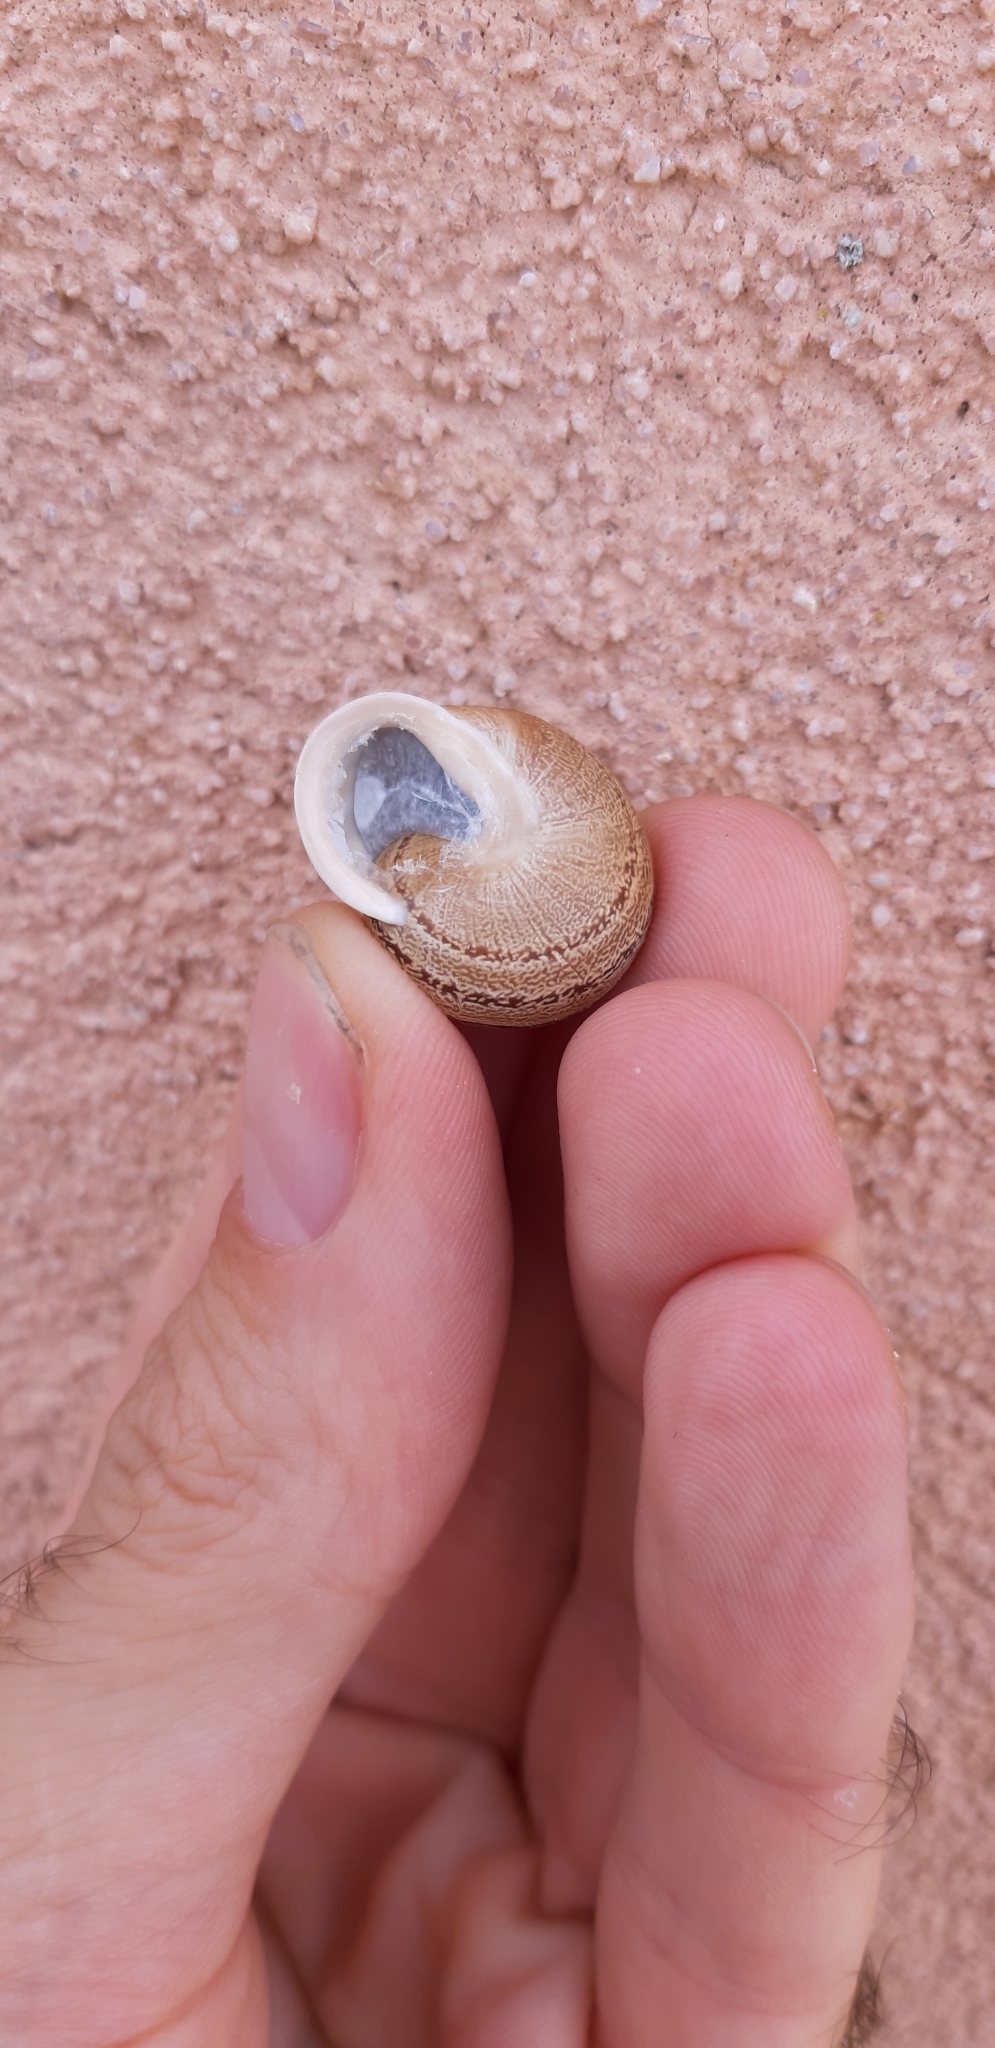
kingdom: Animalia
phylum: Mollusca
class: Gastropoda
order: Stylommatophora
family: Helicidae
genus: Eobania
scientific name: Eobania vermiculata
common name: Chocolateband snail
